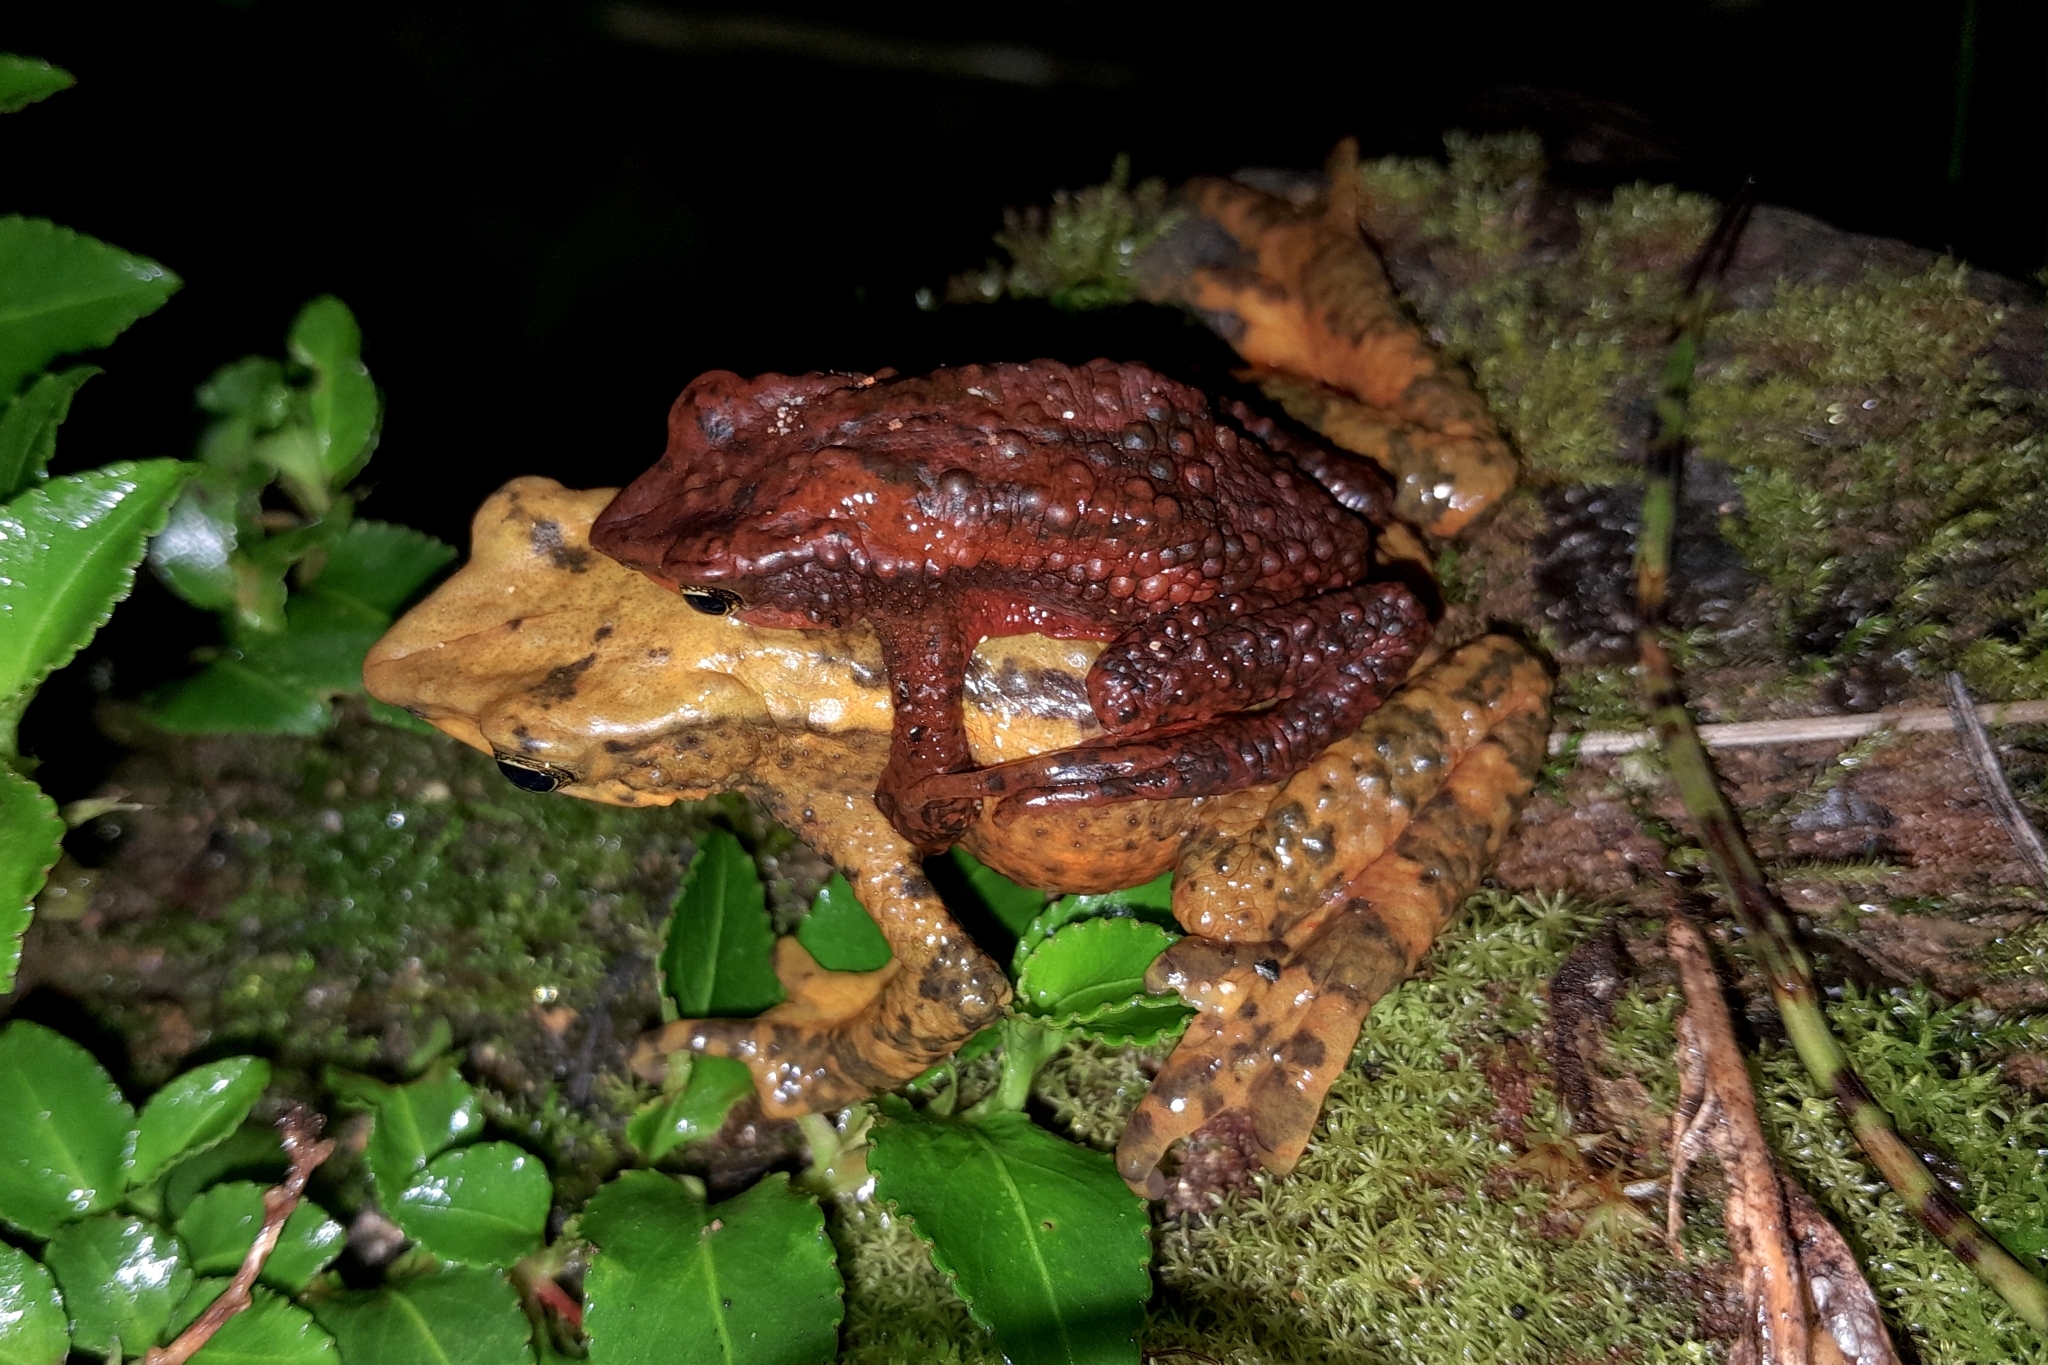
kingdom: Animalia
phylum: Chordata
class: Amphibia
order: Anura
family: Bufonidae
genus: Atelopus
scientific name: Atelopus laetissimus
